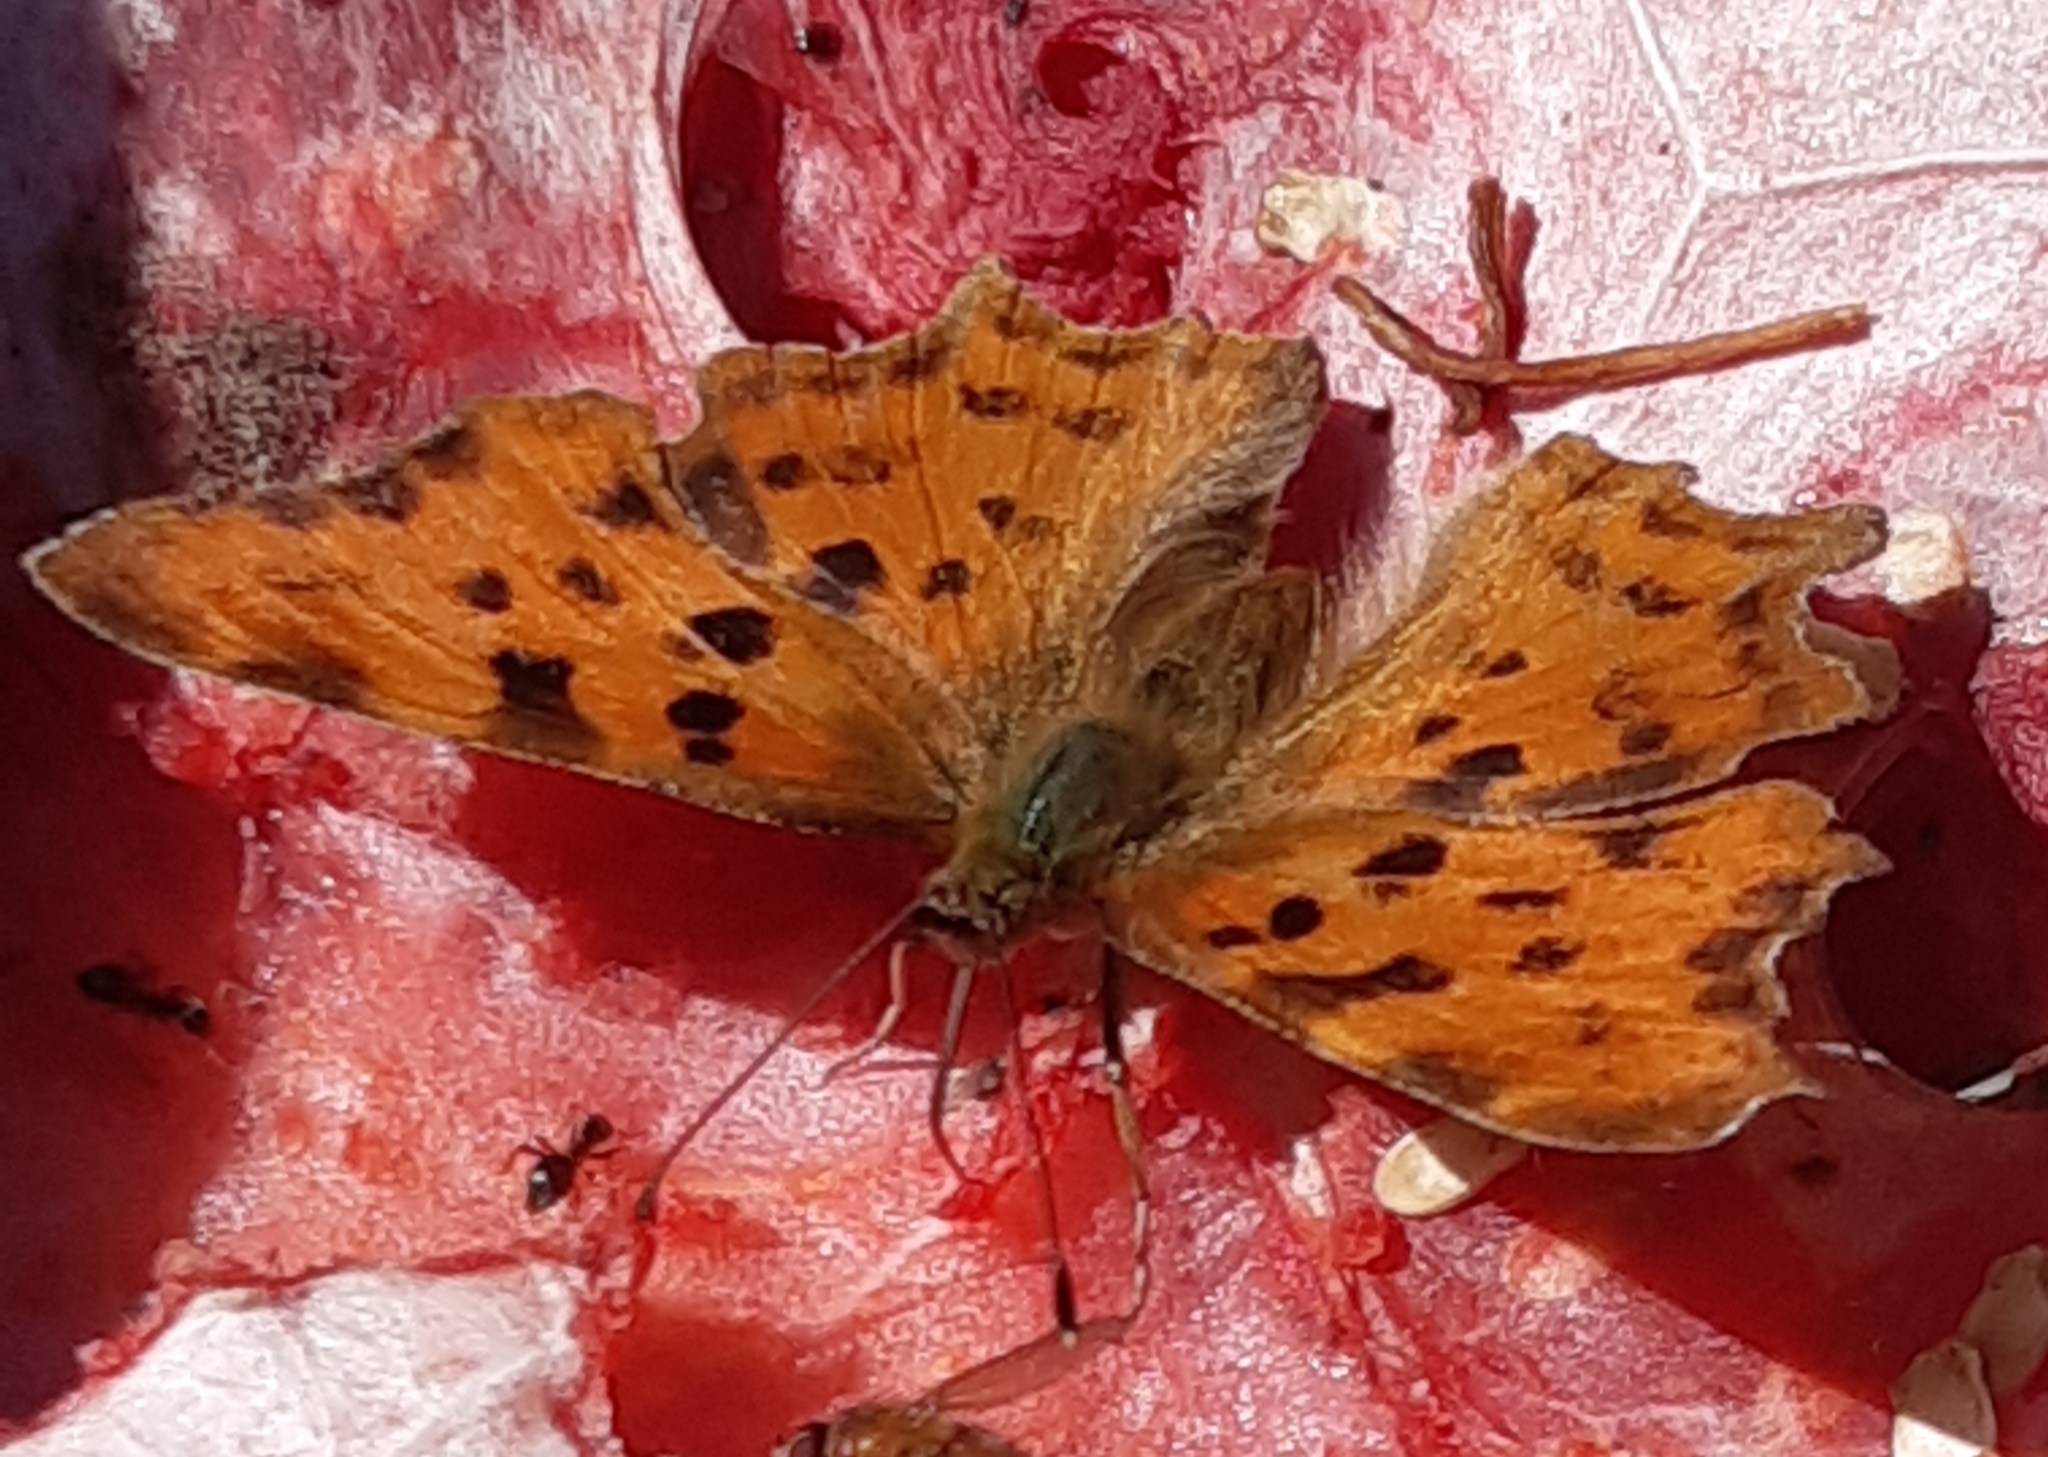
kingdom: Animalia
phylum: Arthropoda
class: Insecta
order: Lepidoptera
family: Nymphalidae
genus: Polygonia
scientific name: Polygonia c-album
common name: Comma
